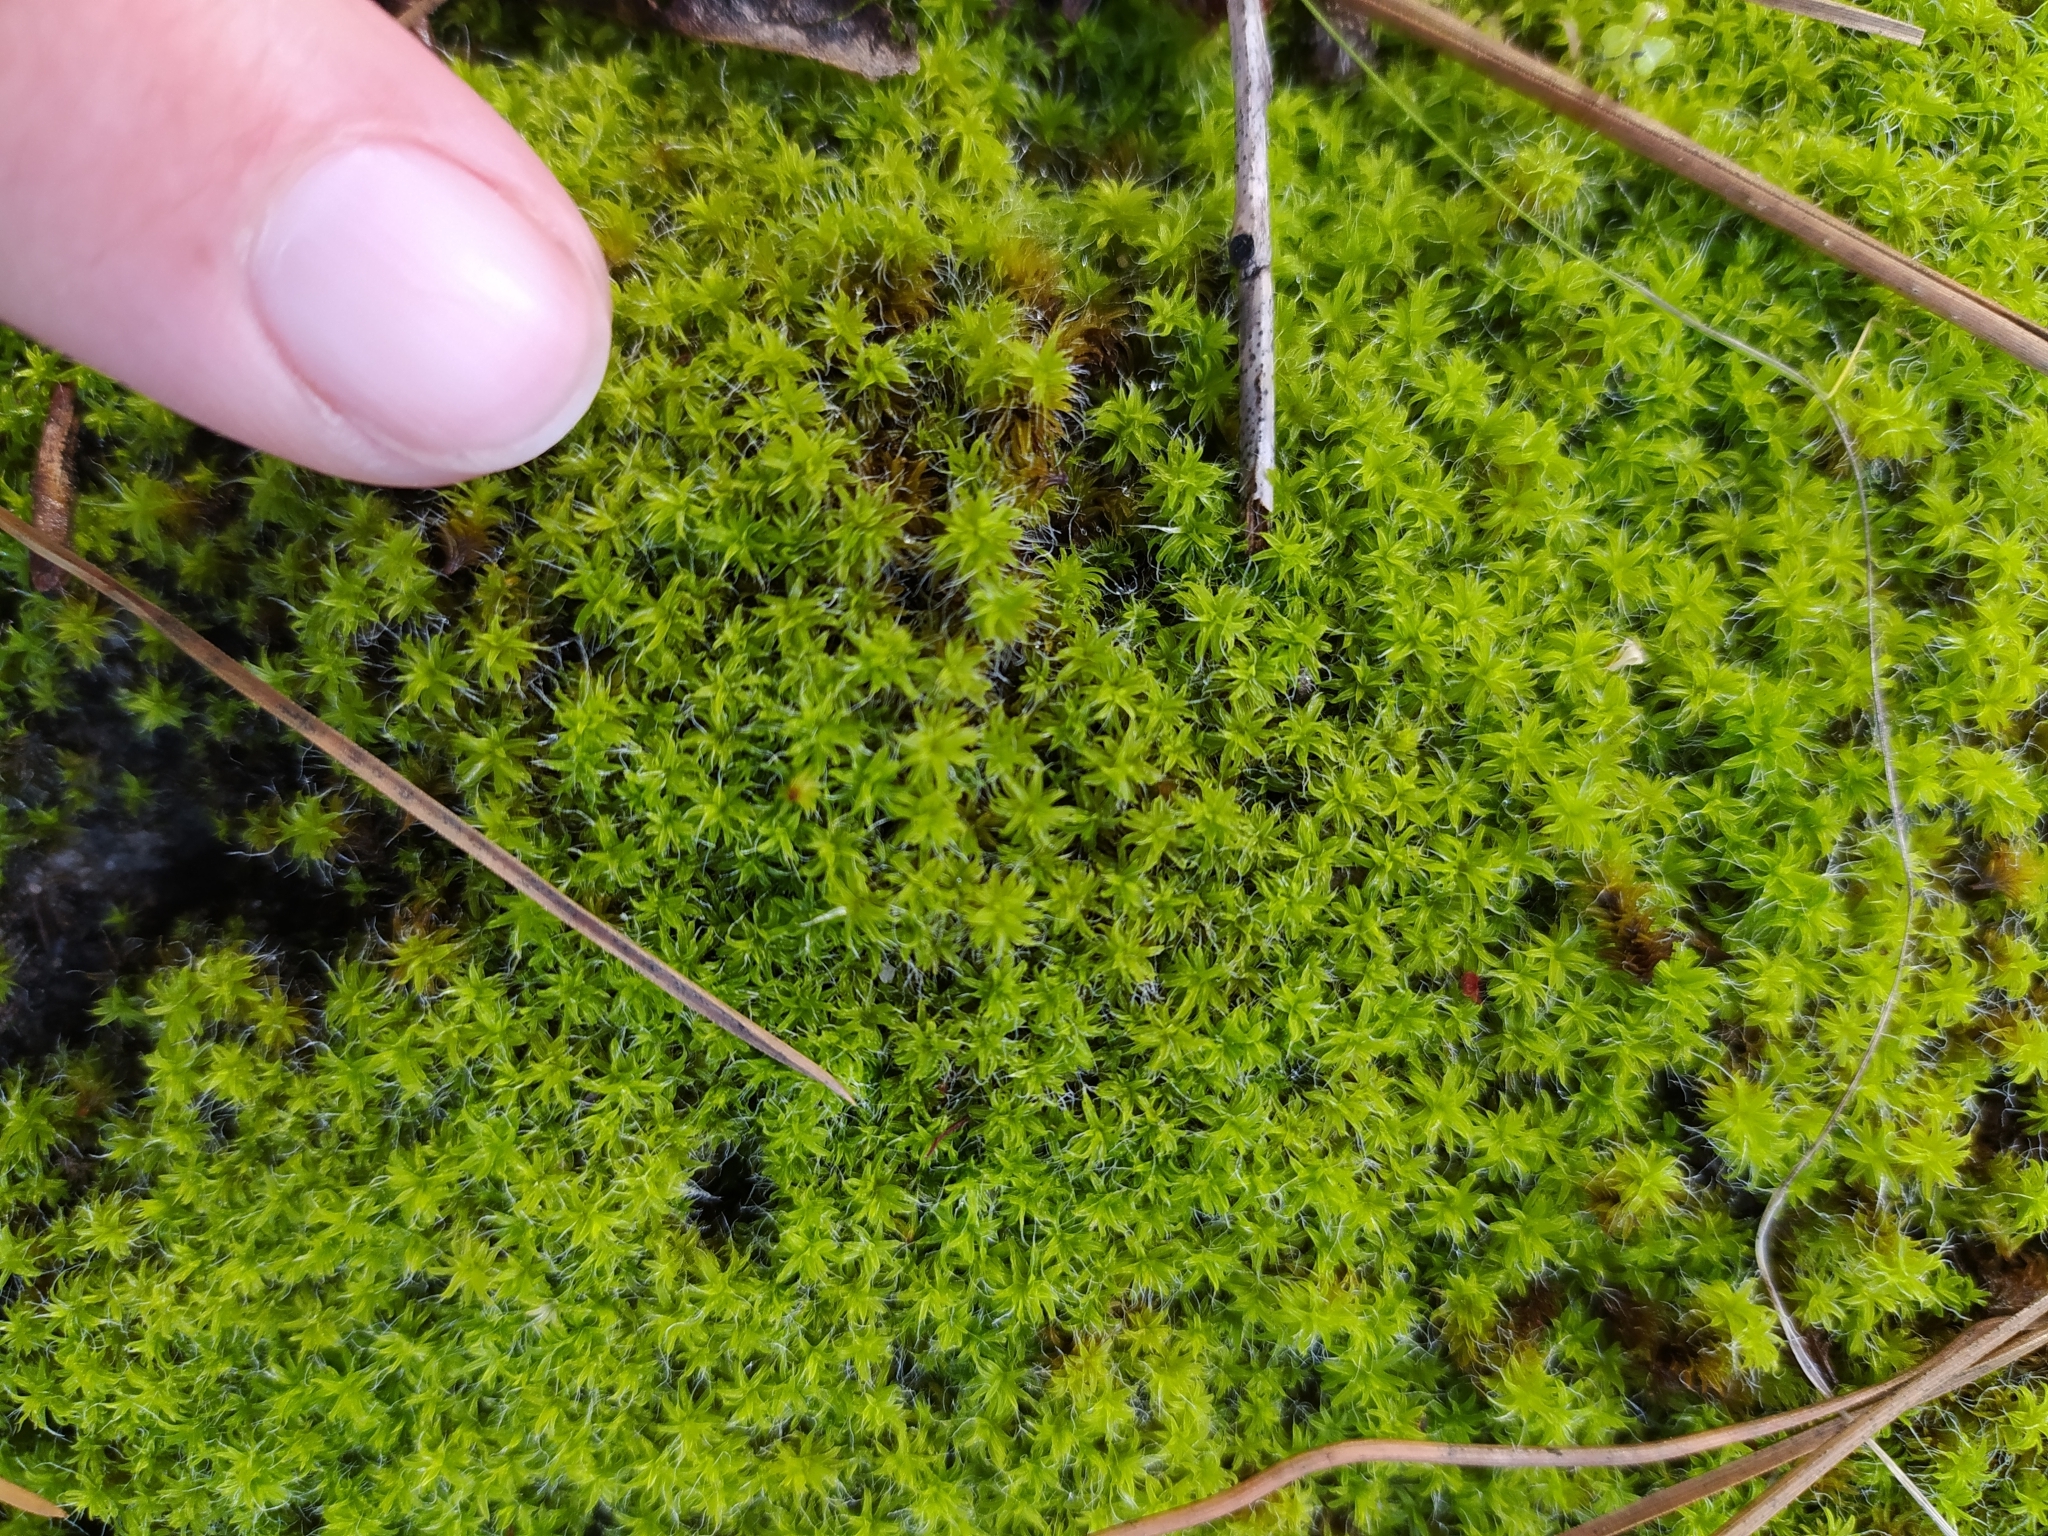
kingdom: Plantae
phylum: Bryophyta
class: Bryopsida
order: Pottiales
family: Pottiaceae
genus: Pseudocrossidium
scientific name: Pseudocrossidium crinitum
